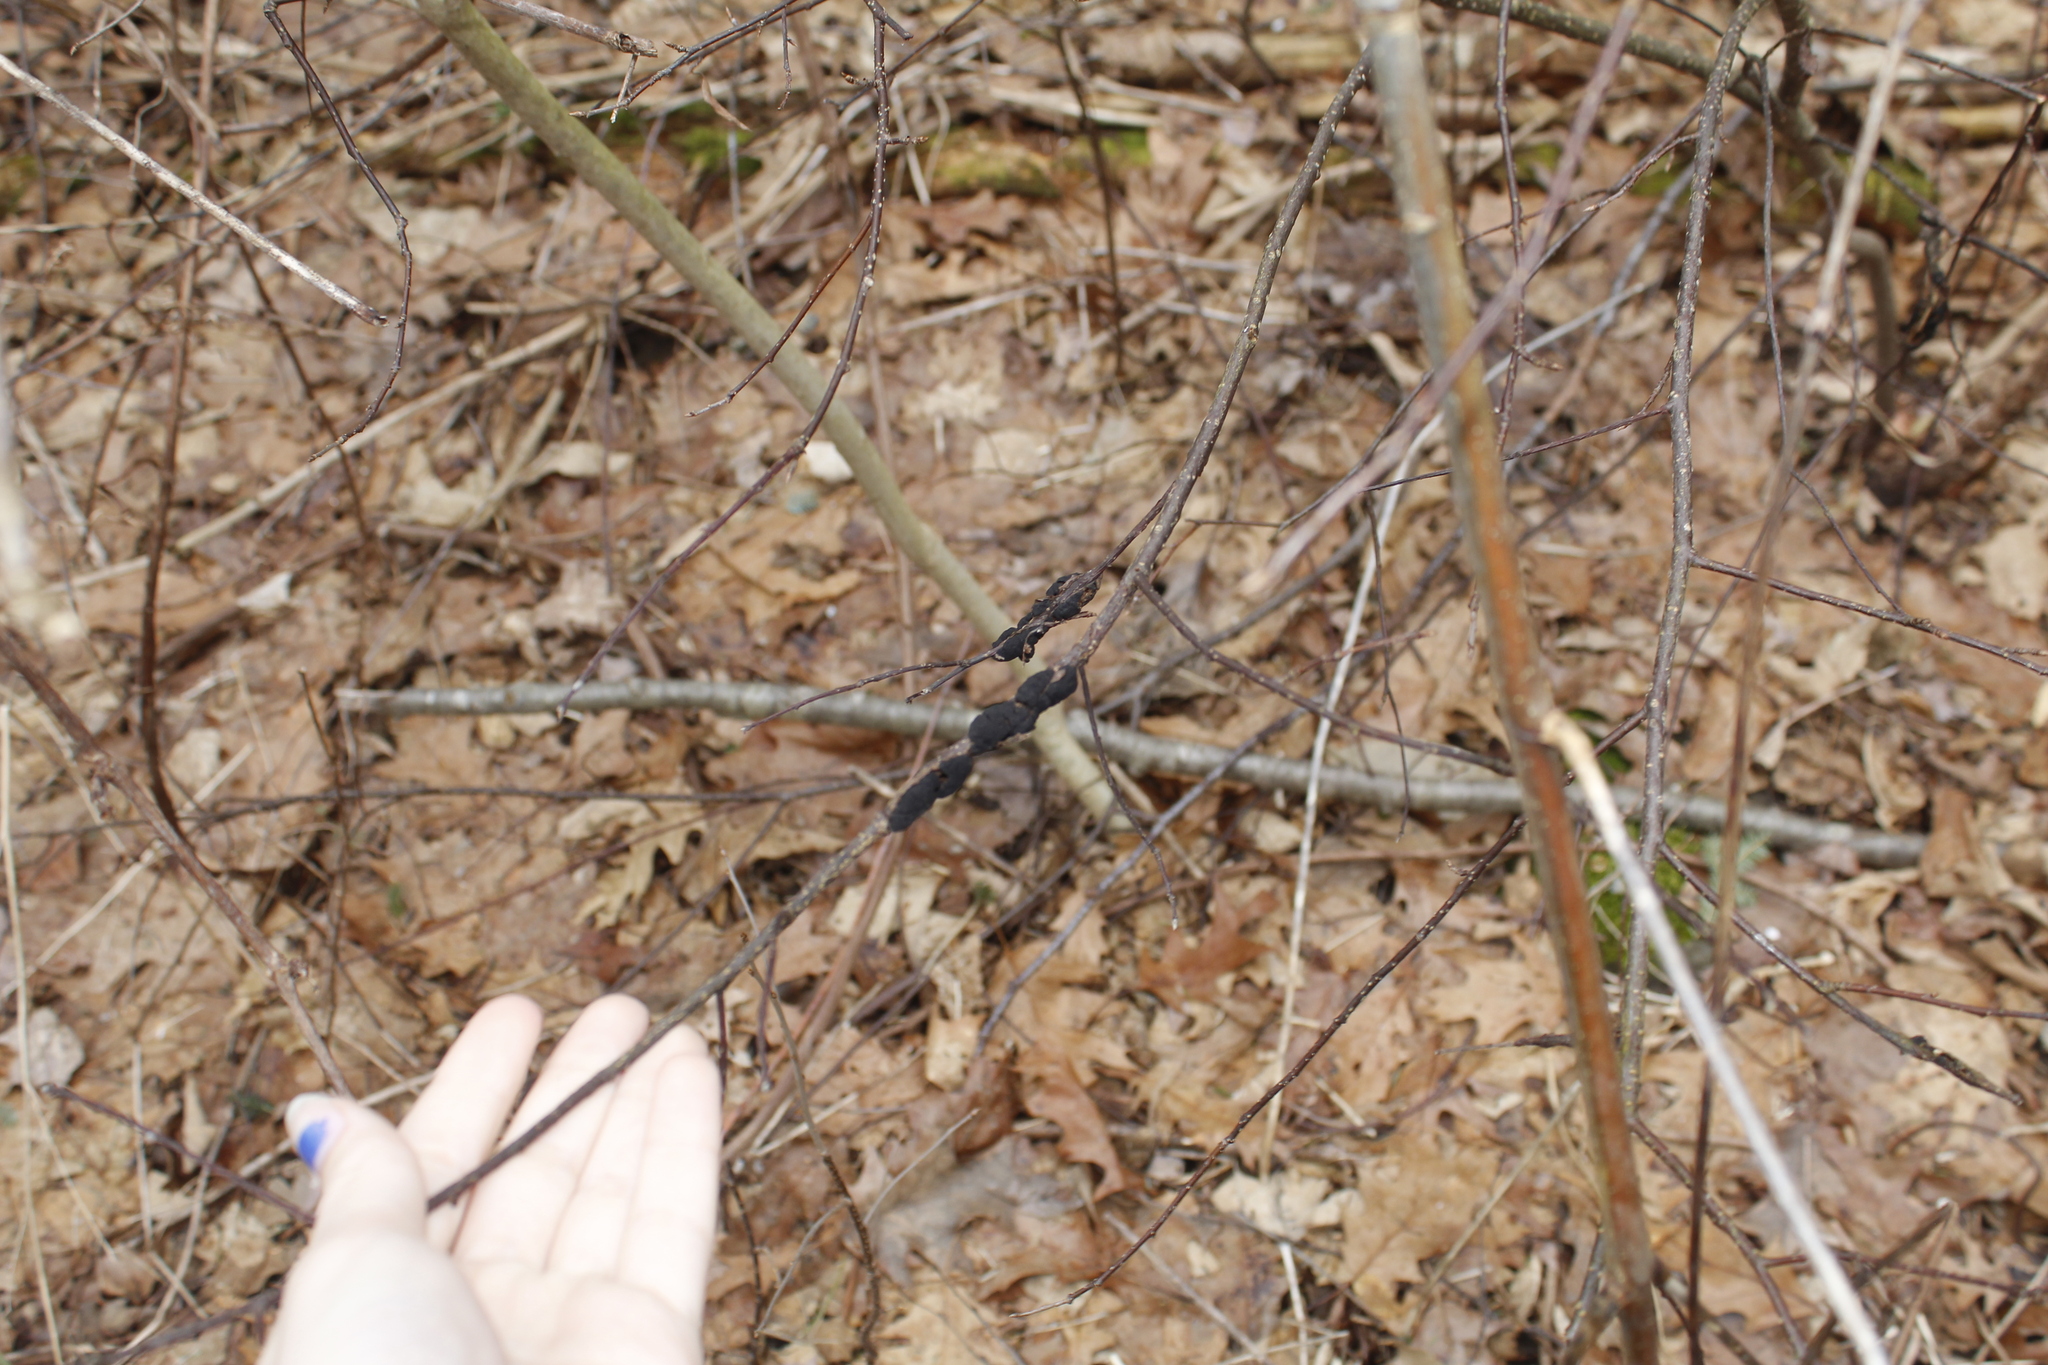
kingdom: Plantae
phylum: Tracheophyta
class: Magnoliopsida
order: Rosales
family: Rosaceae
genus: Prunus
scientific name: Prunus
